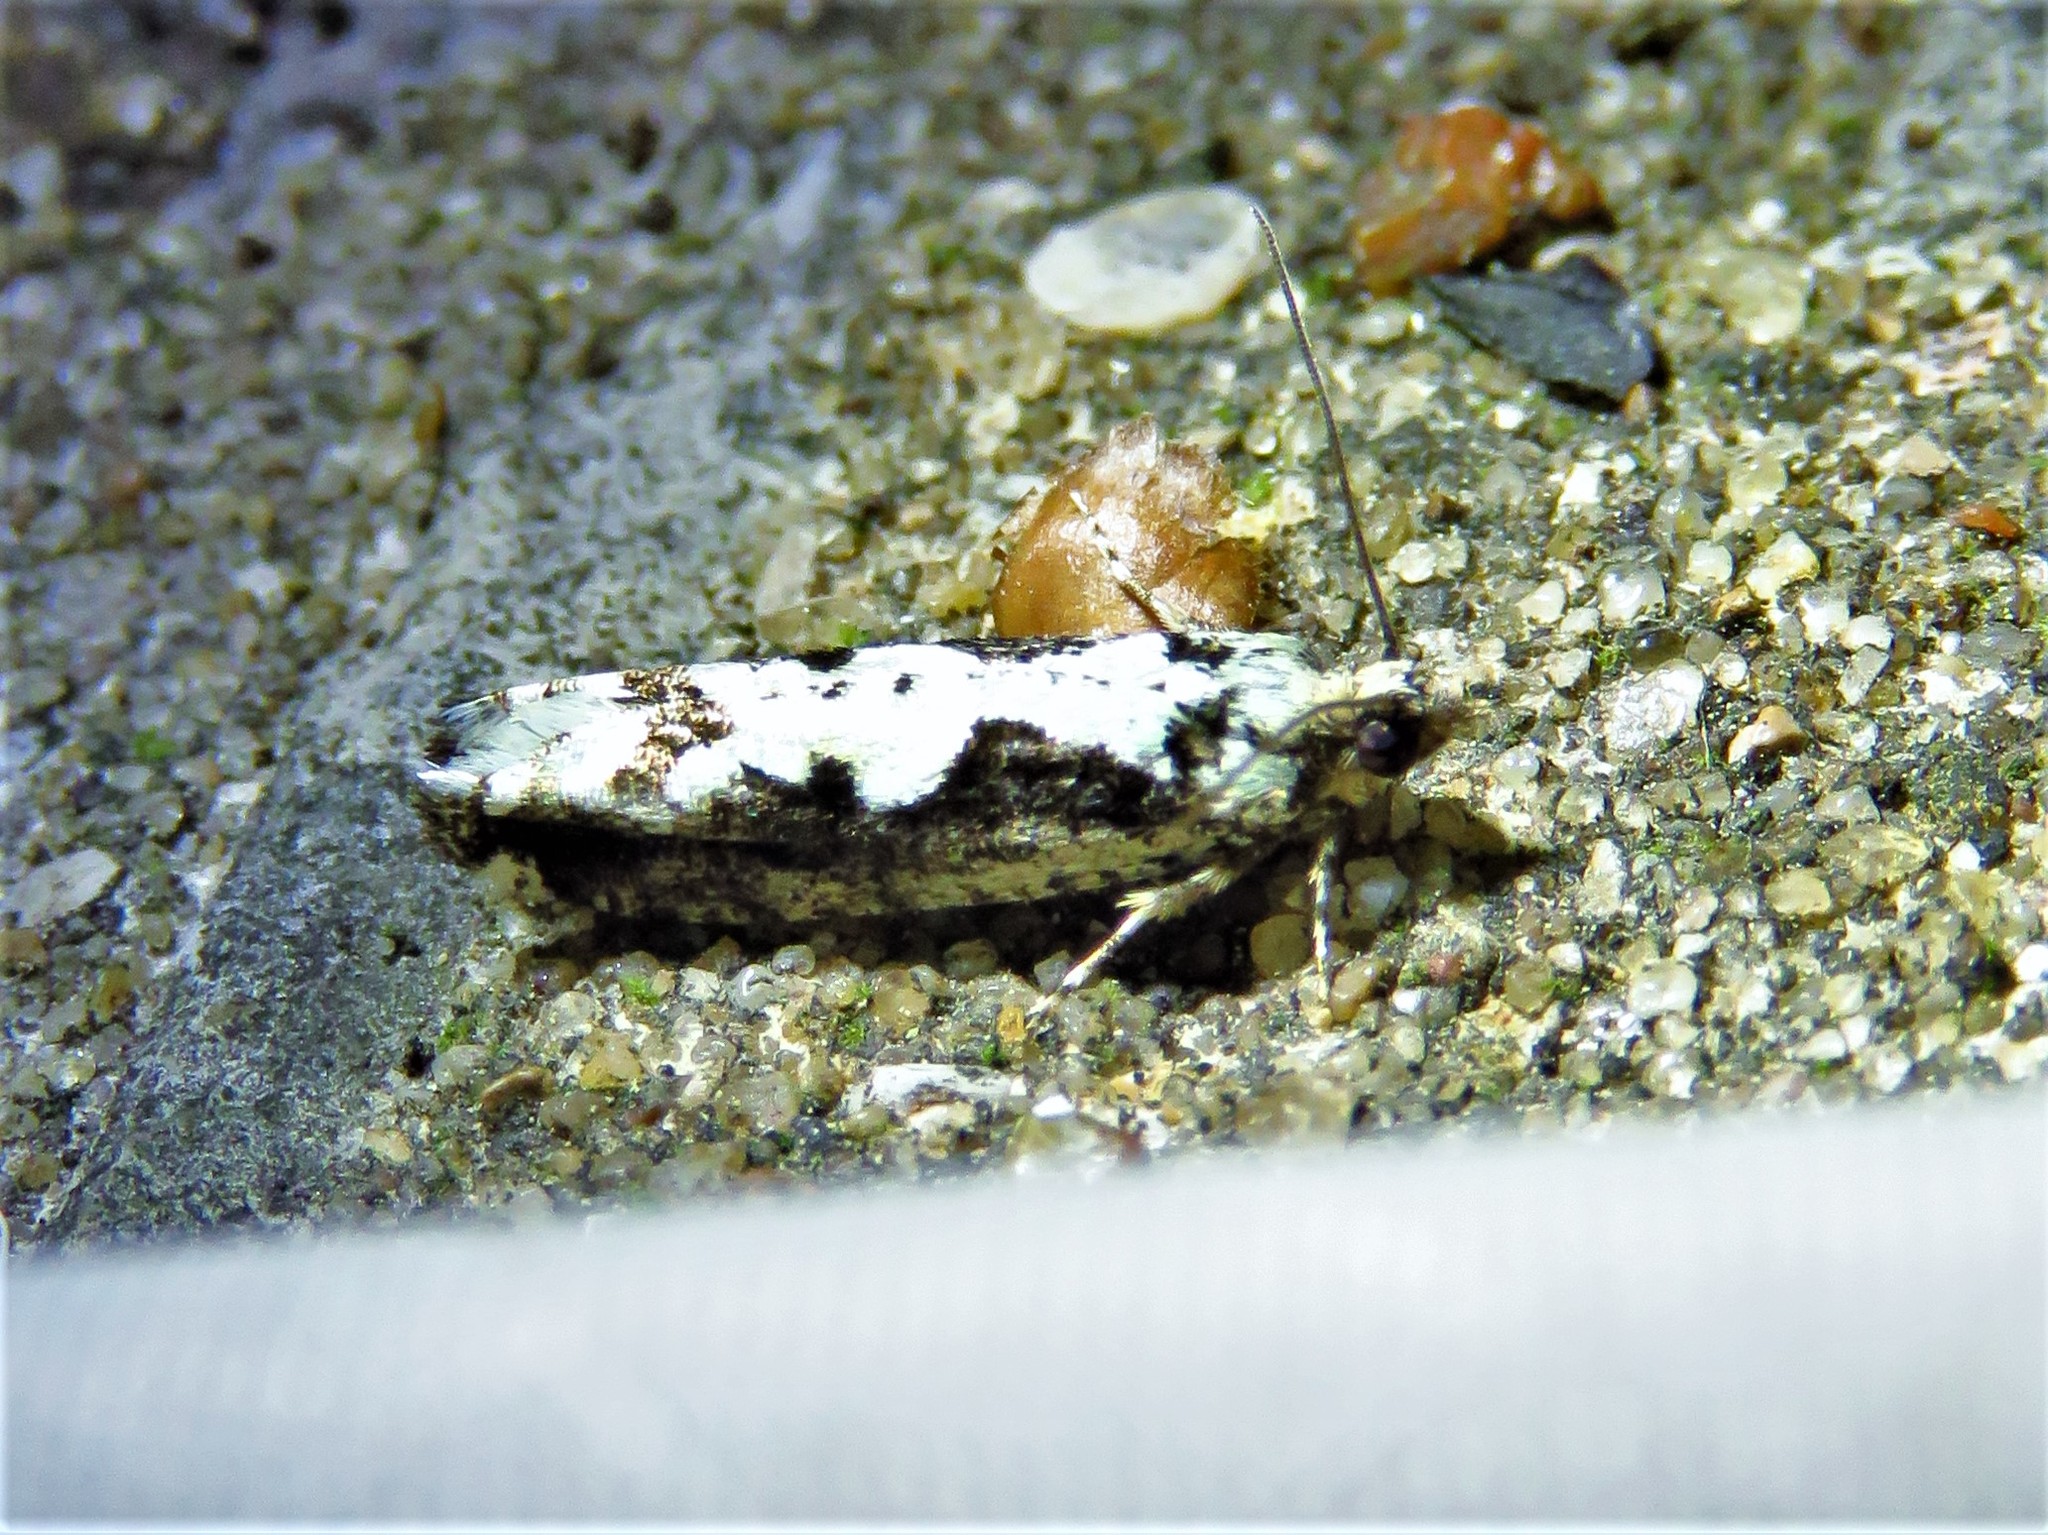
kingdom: Animalia
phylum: Arthropoda
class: Insecta
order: Lepidoptera
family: Tortricidae
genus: Chimoptesis
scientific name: Chimoptesis pennsylvaniana
